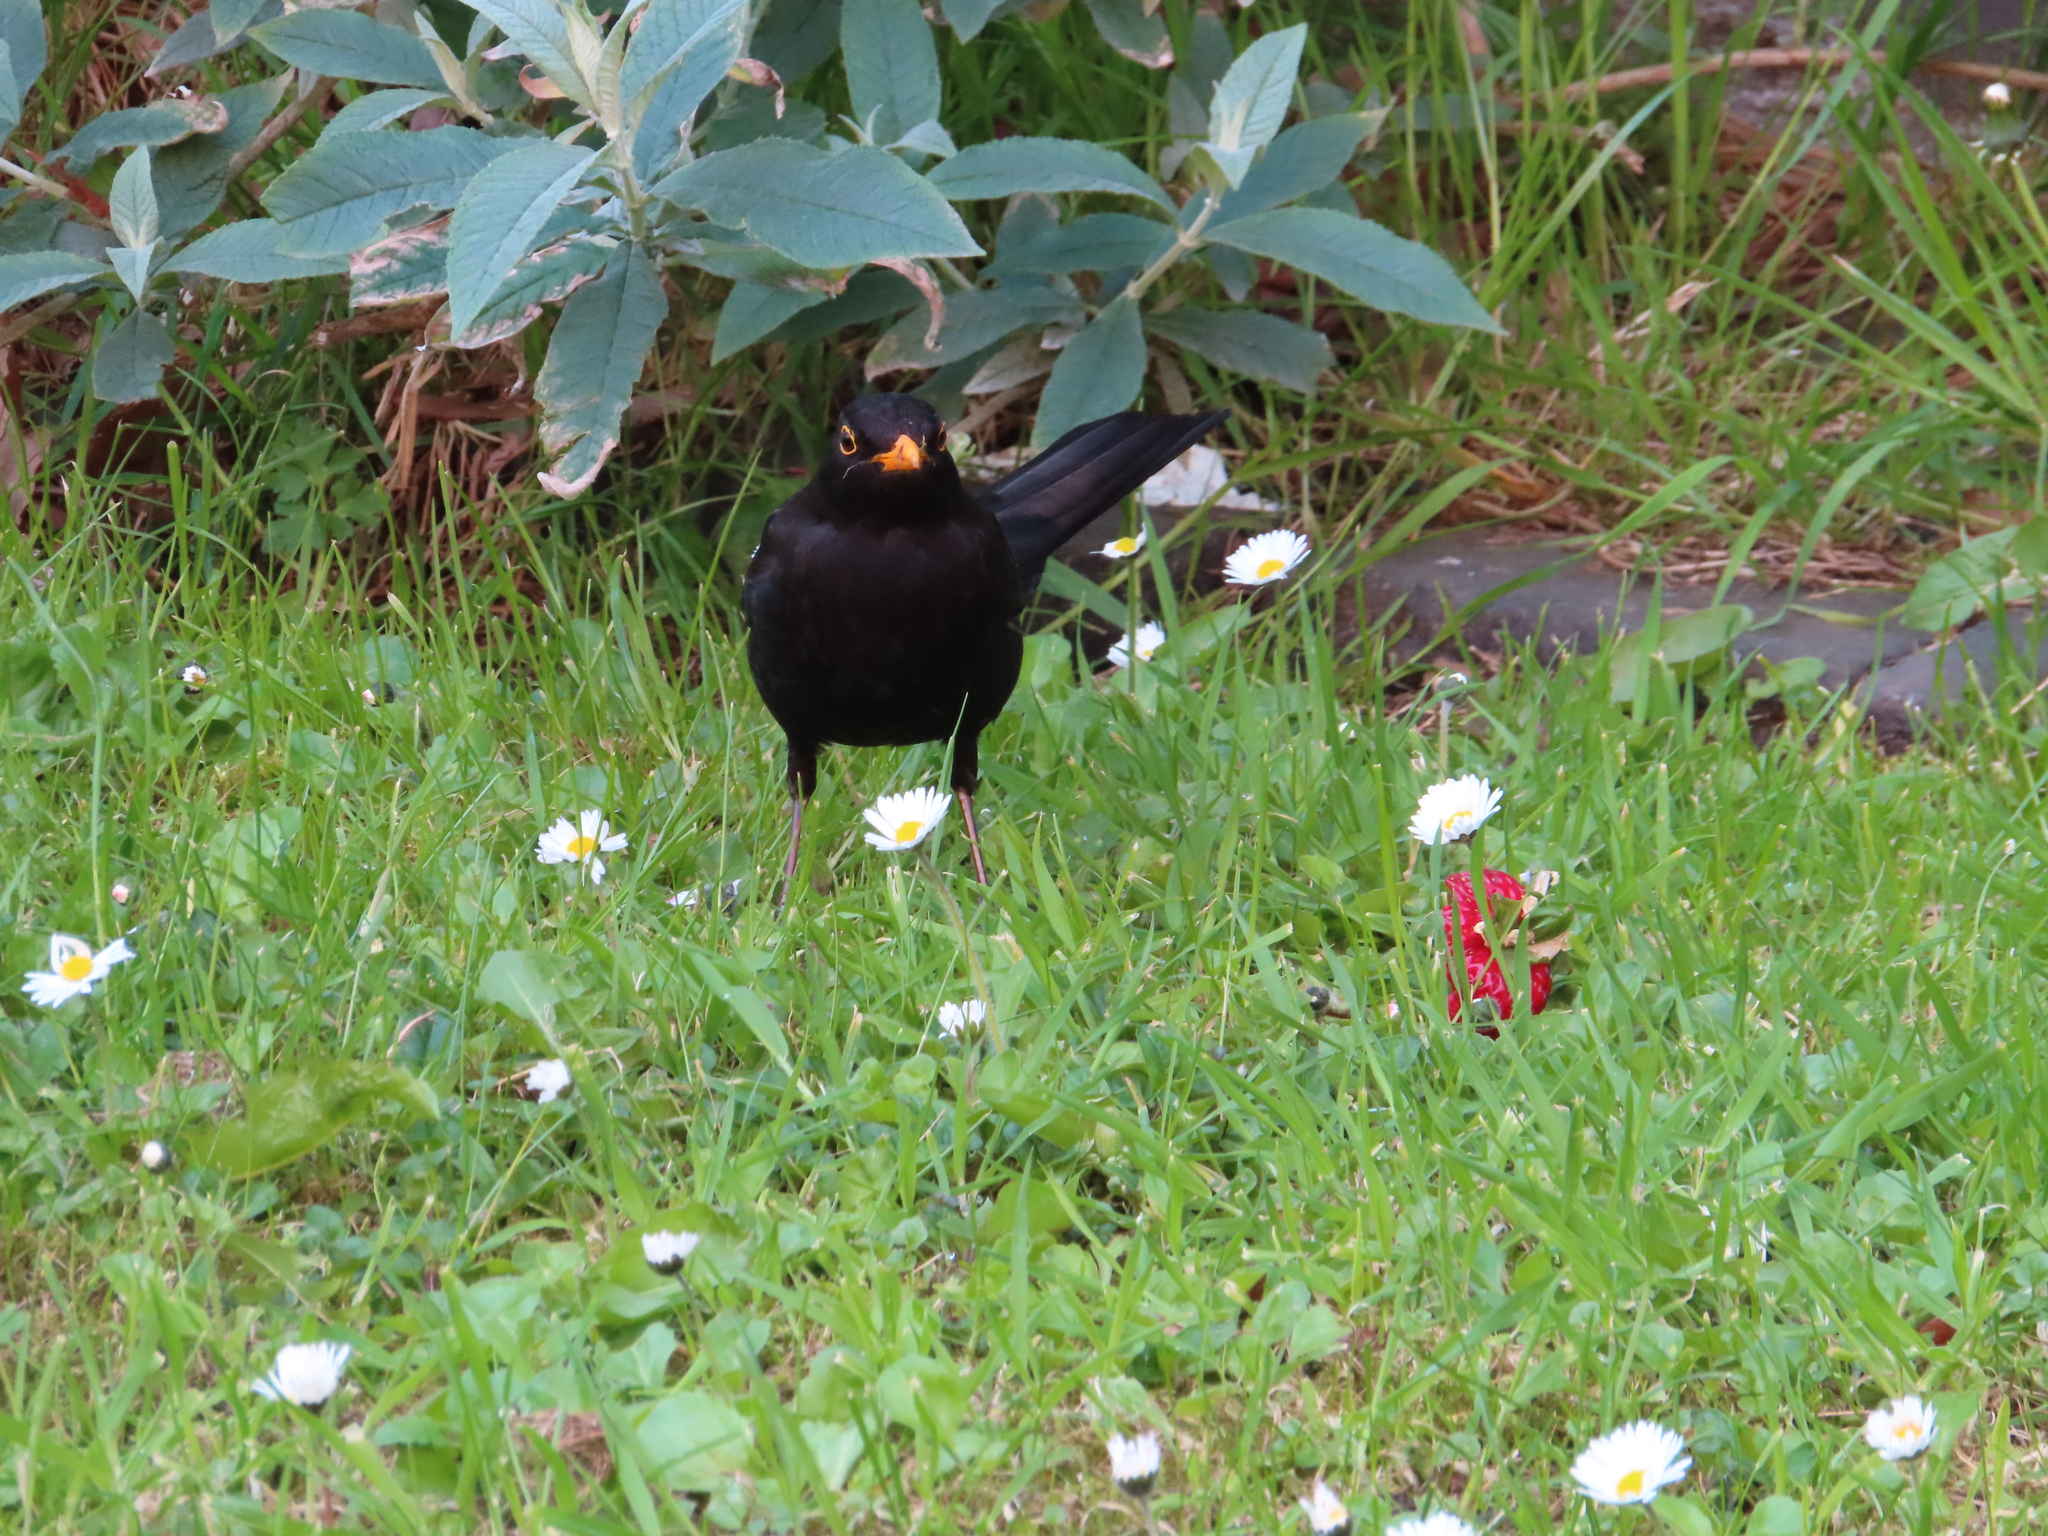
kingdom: Animalia
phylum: Chordata
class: Aves
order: Passeriformes
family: Turdidae
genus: Turdus
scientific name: Turdus merula
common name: Common blackbird
